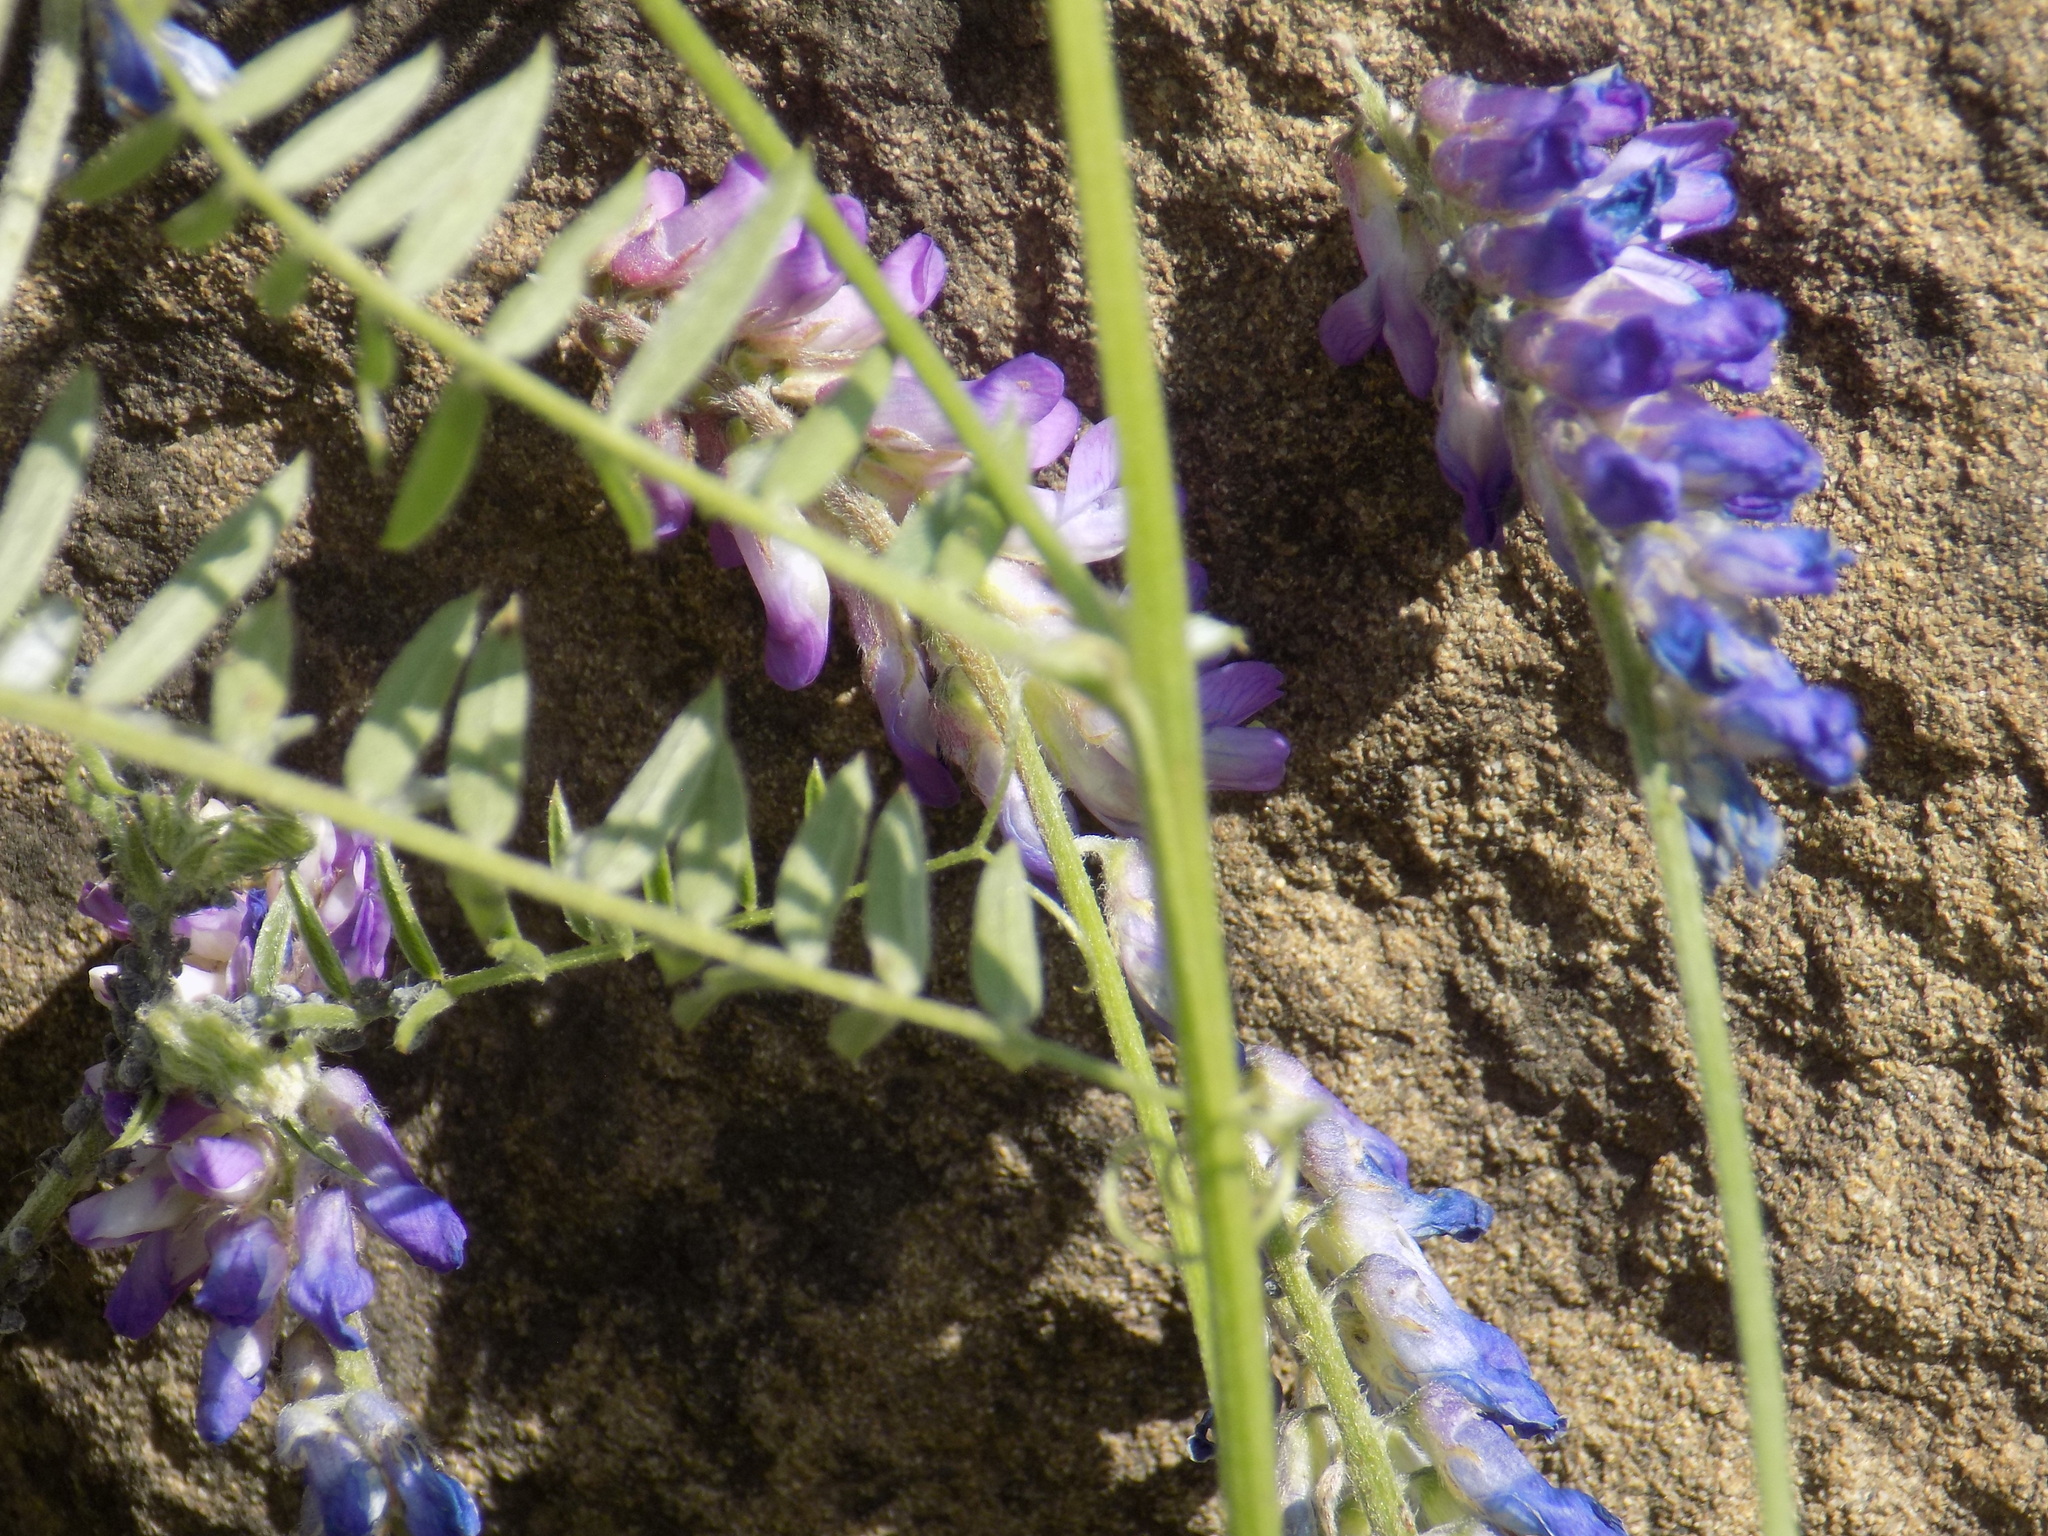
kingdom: Plantae
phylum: Tracheophyta
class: Magnoliopsida
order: Fabales
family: Fabaceae
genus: Vicia
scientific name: Vicia cracca
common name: Bird vetch
